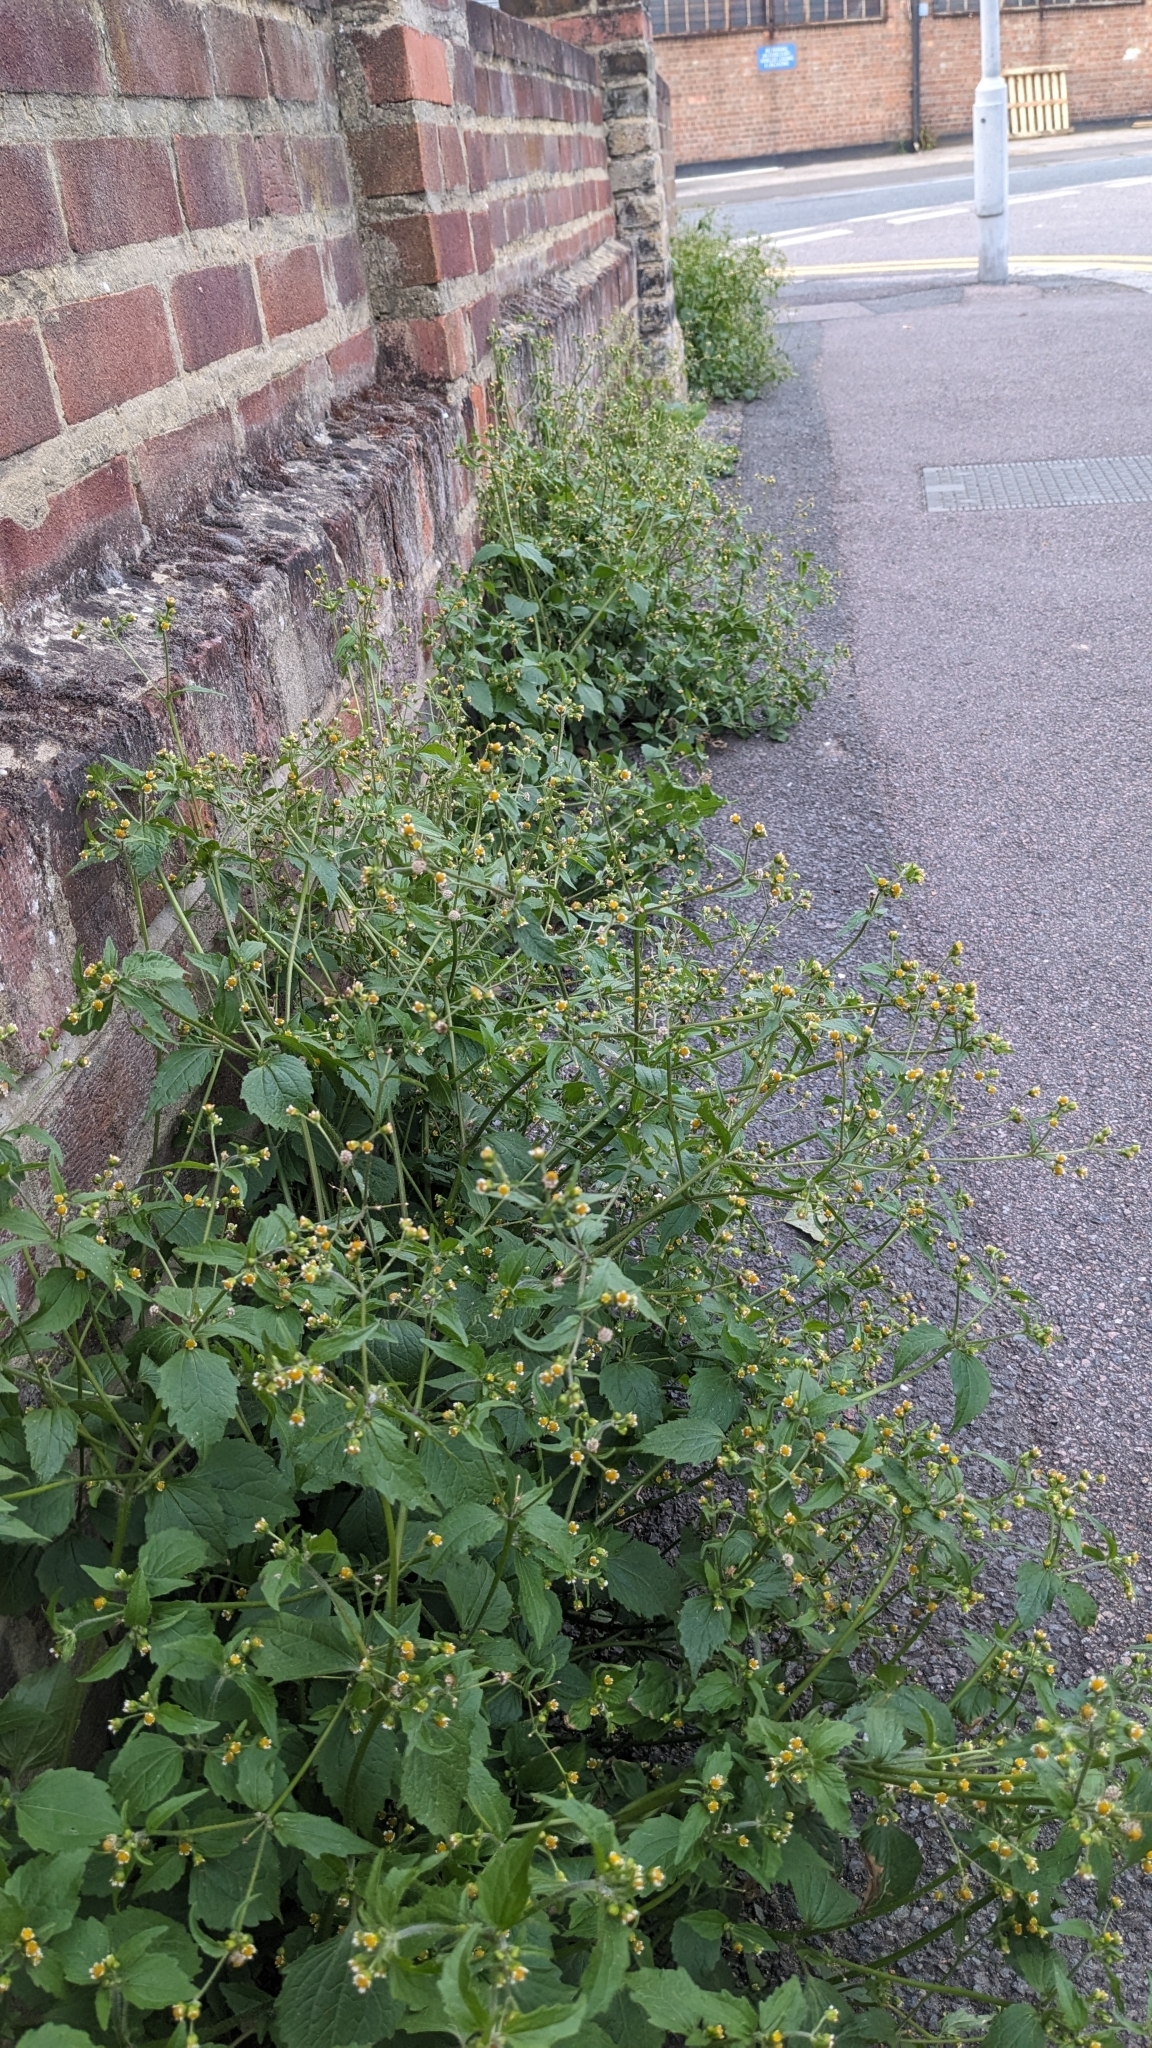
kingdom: Plantae
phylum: Tracheophyta
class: Magnoliopsida
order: Asterales
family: Asteraceae
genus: Galinsoga
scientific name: Galinsoga quadriradiata
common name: Shaggy soldier
